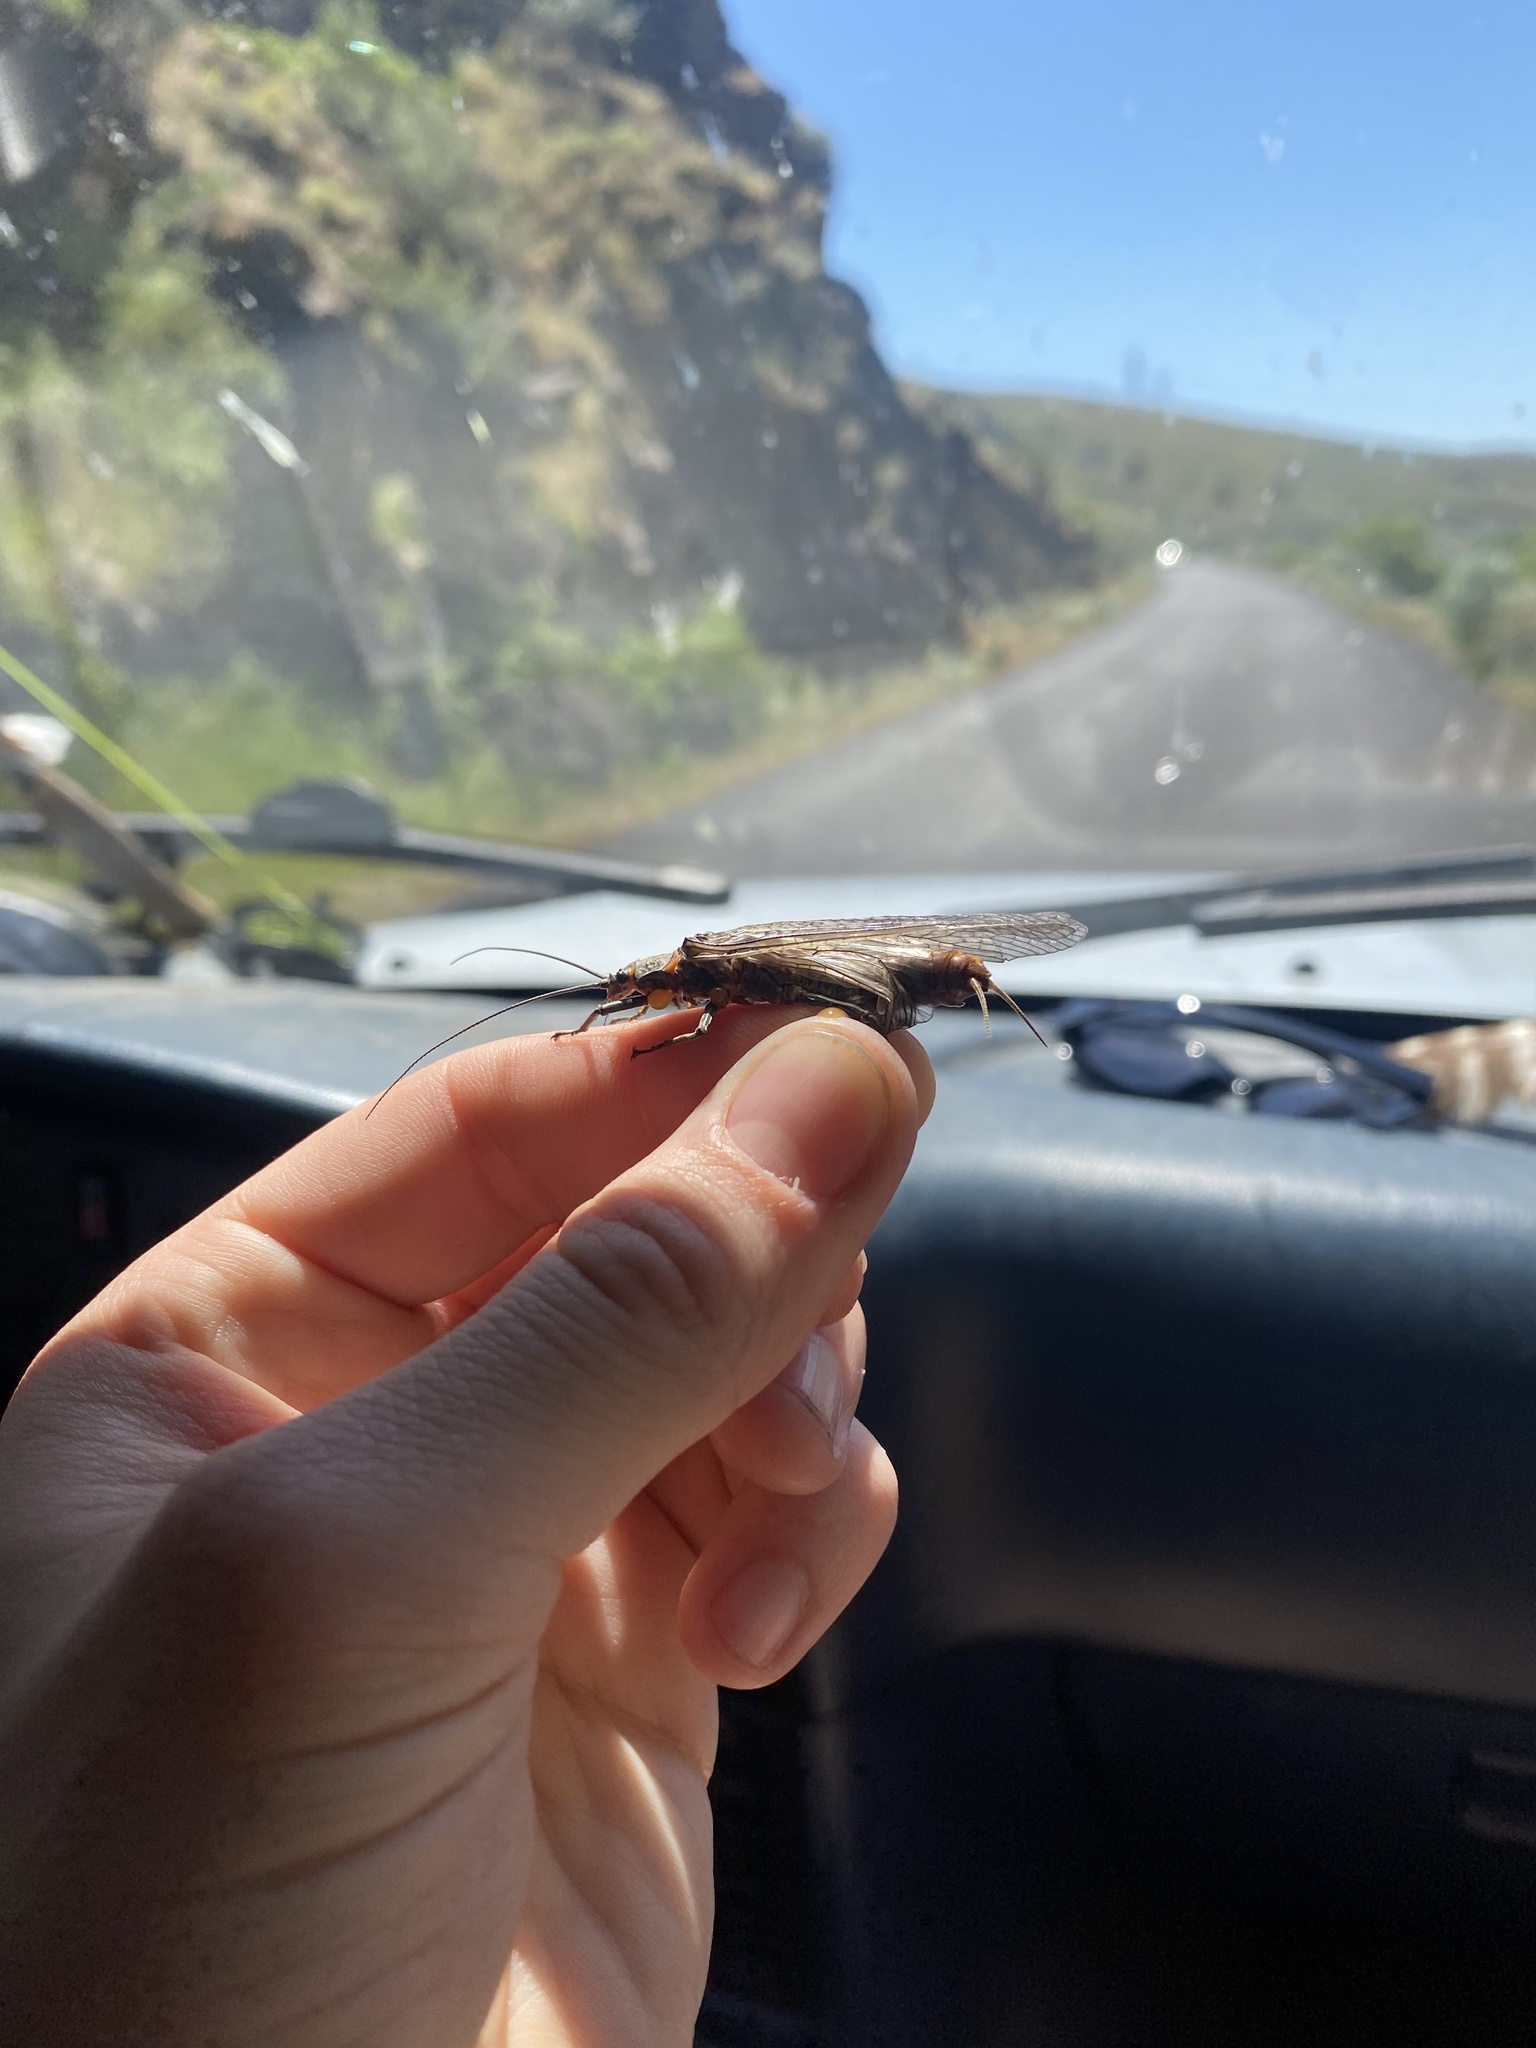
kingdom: Animalia
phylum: Arthropoda
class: Insecta
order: Plecoptera
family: Pteronarcyidae
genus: Pteronarcys
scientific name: Pteronarcys californica
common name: Giant salmonfly
